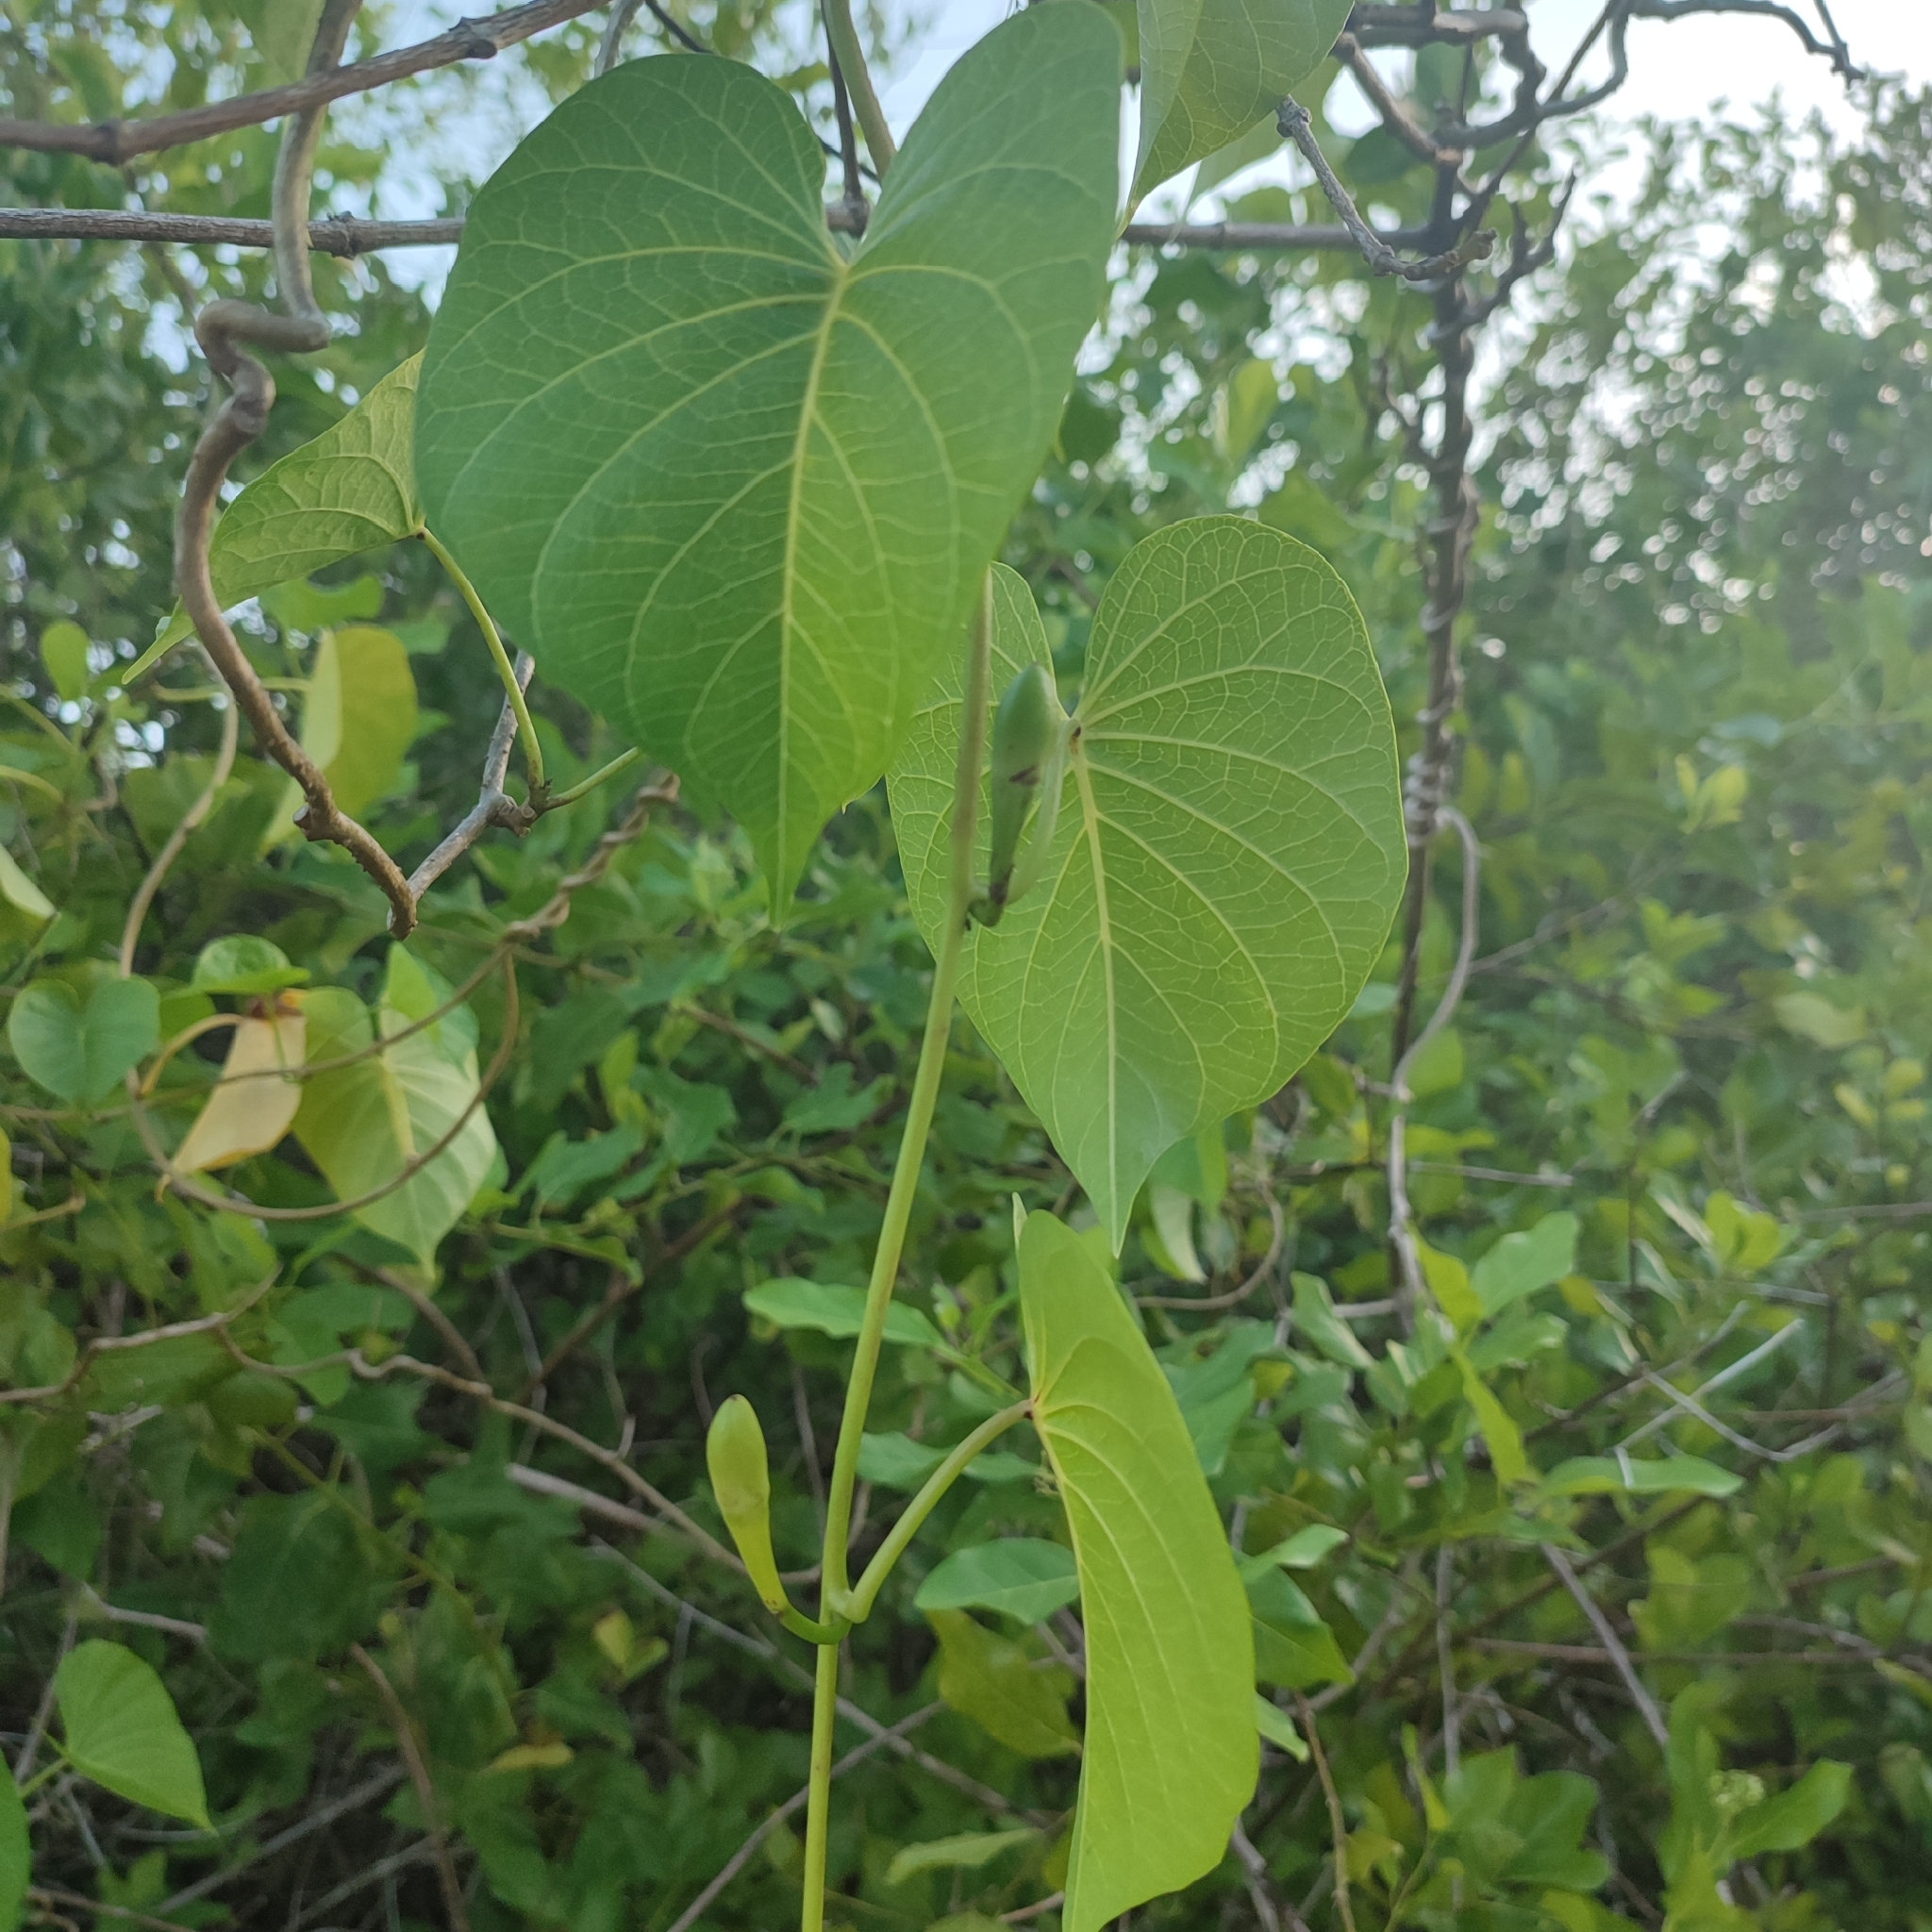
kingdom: Plantae
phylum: Tracheophyta
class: Magnoliopsida
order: Solanales
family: Convolvulaceae
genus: Ipomoea
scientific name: Ipomoea violacea
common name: Beach moonflower
